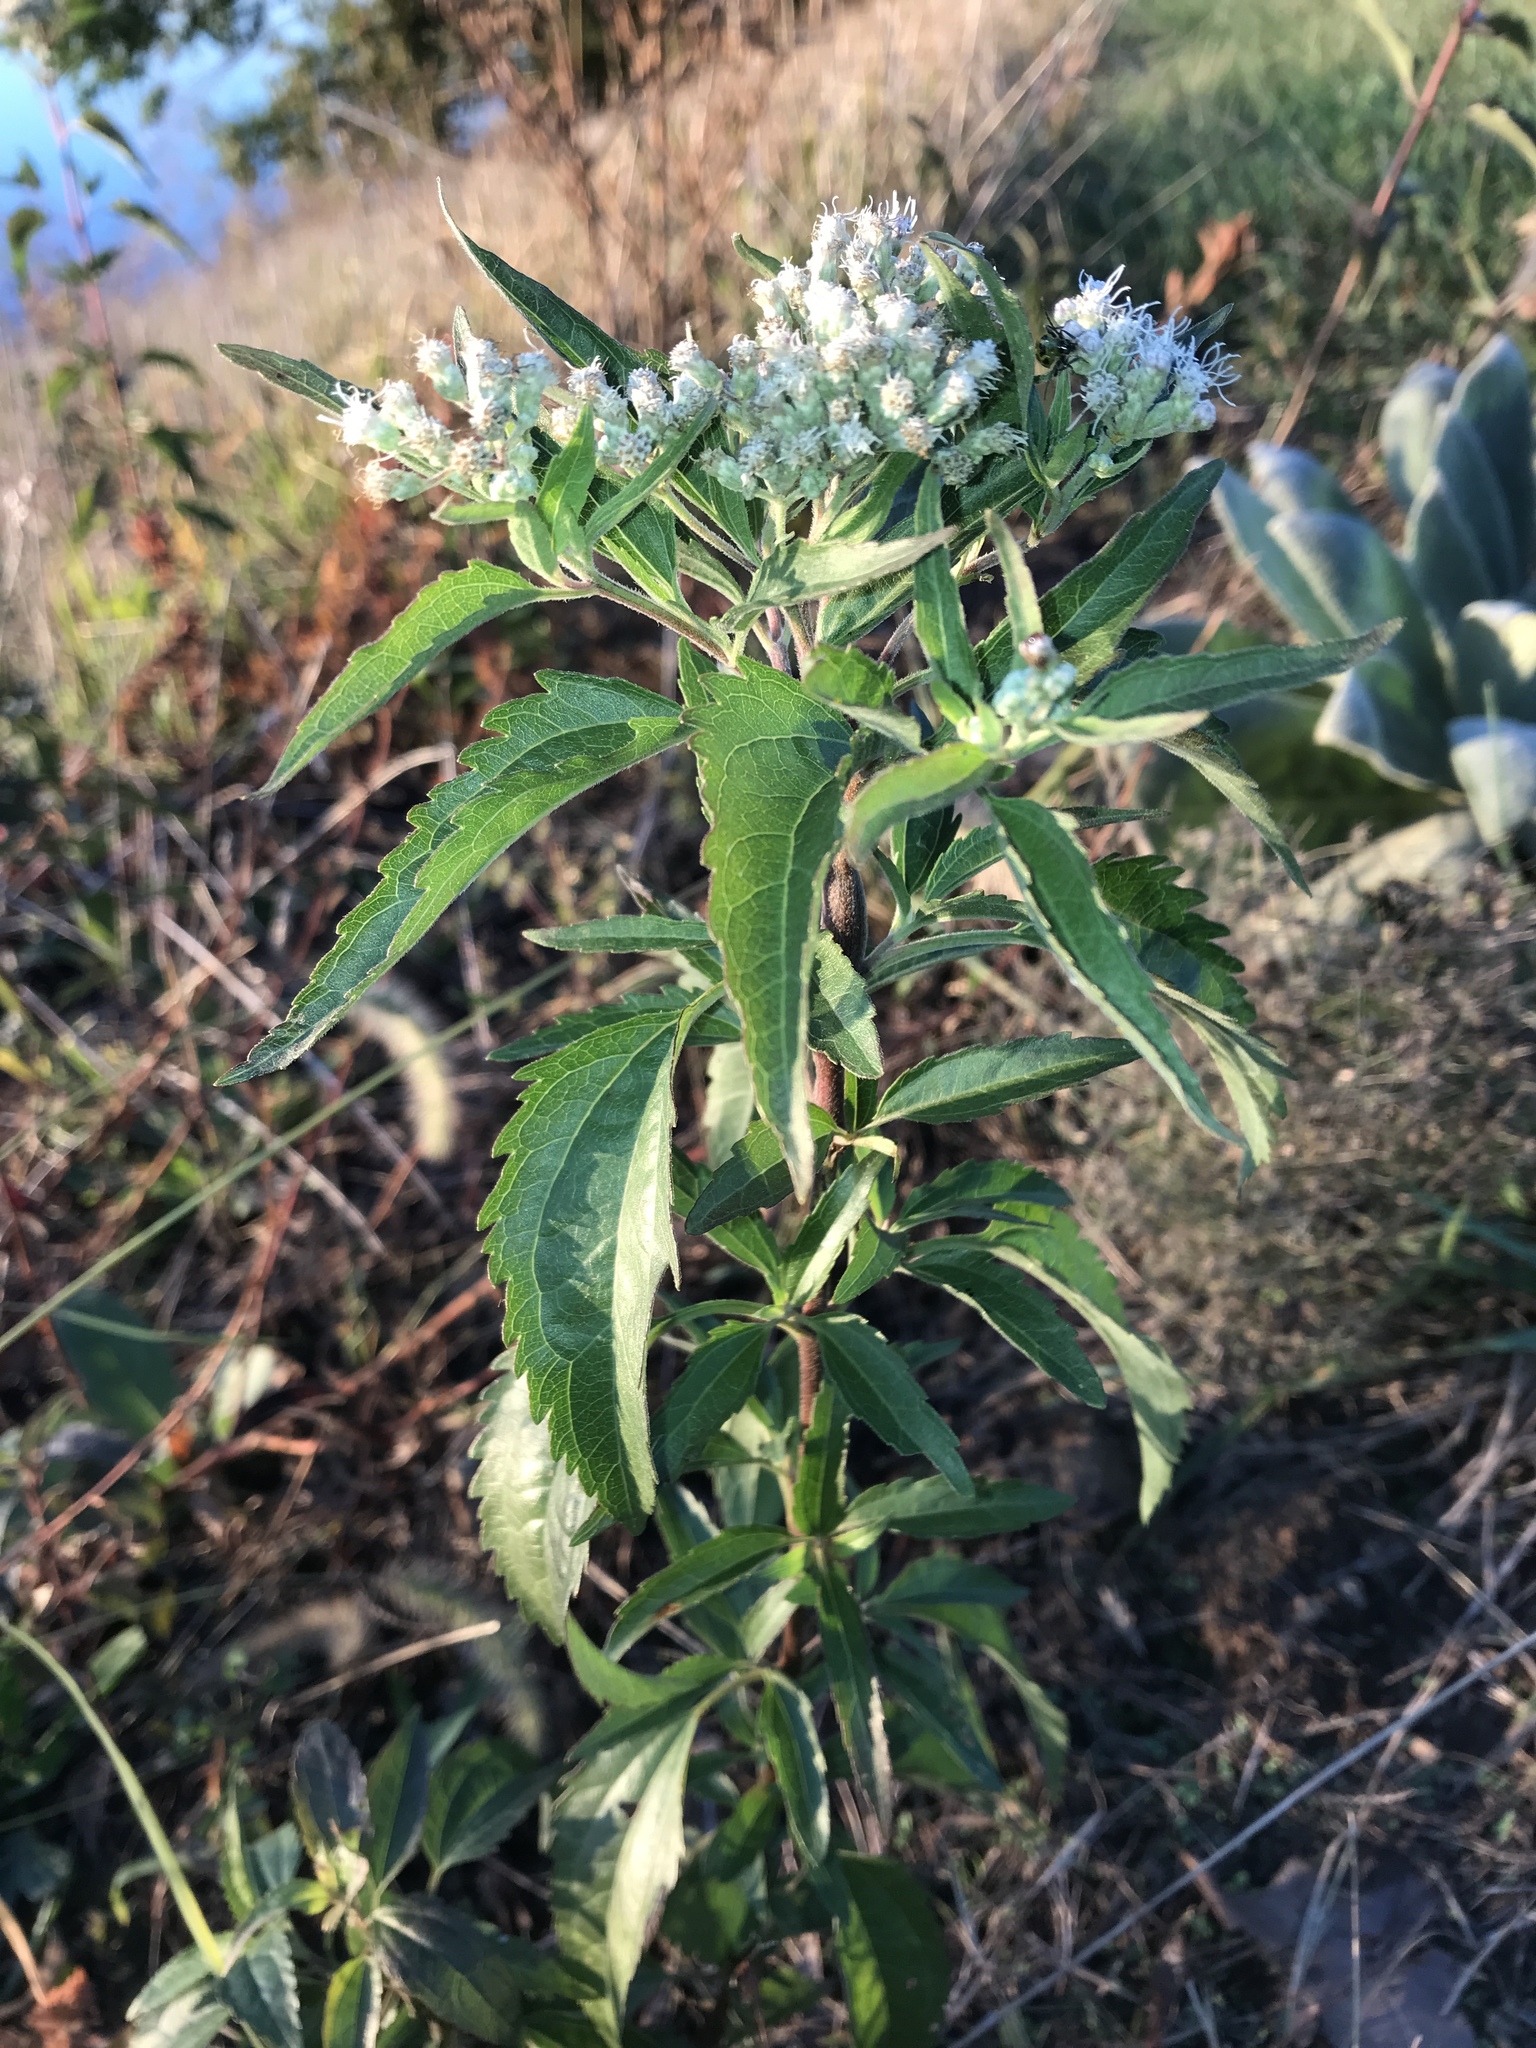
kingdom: Plantae
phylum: Tracheophyta
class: Magnoliopsida
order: Asterales
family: Asteraceae
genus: Eupatorium
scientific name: Eupatorium serotinum
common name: Late boneset
